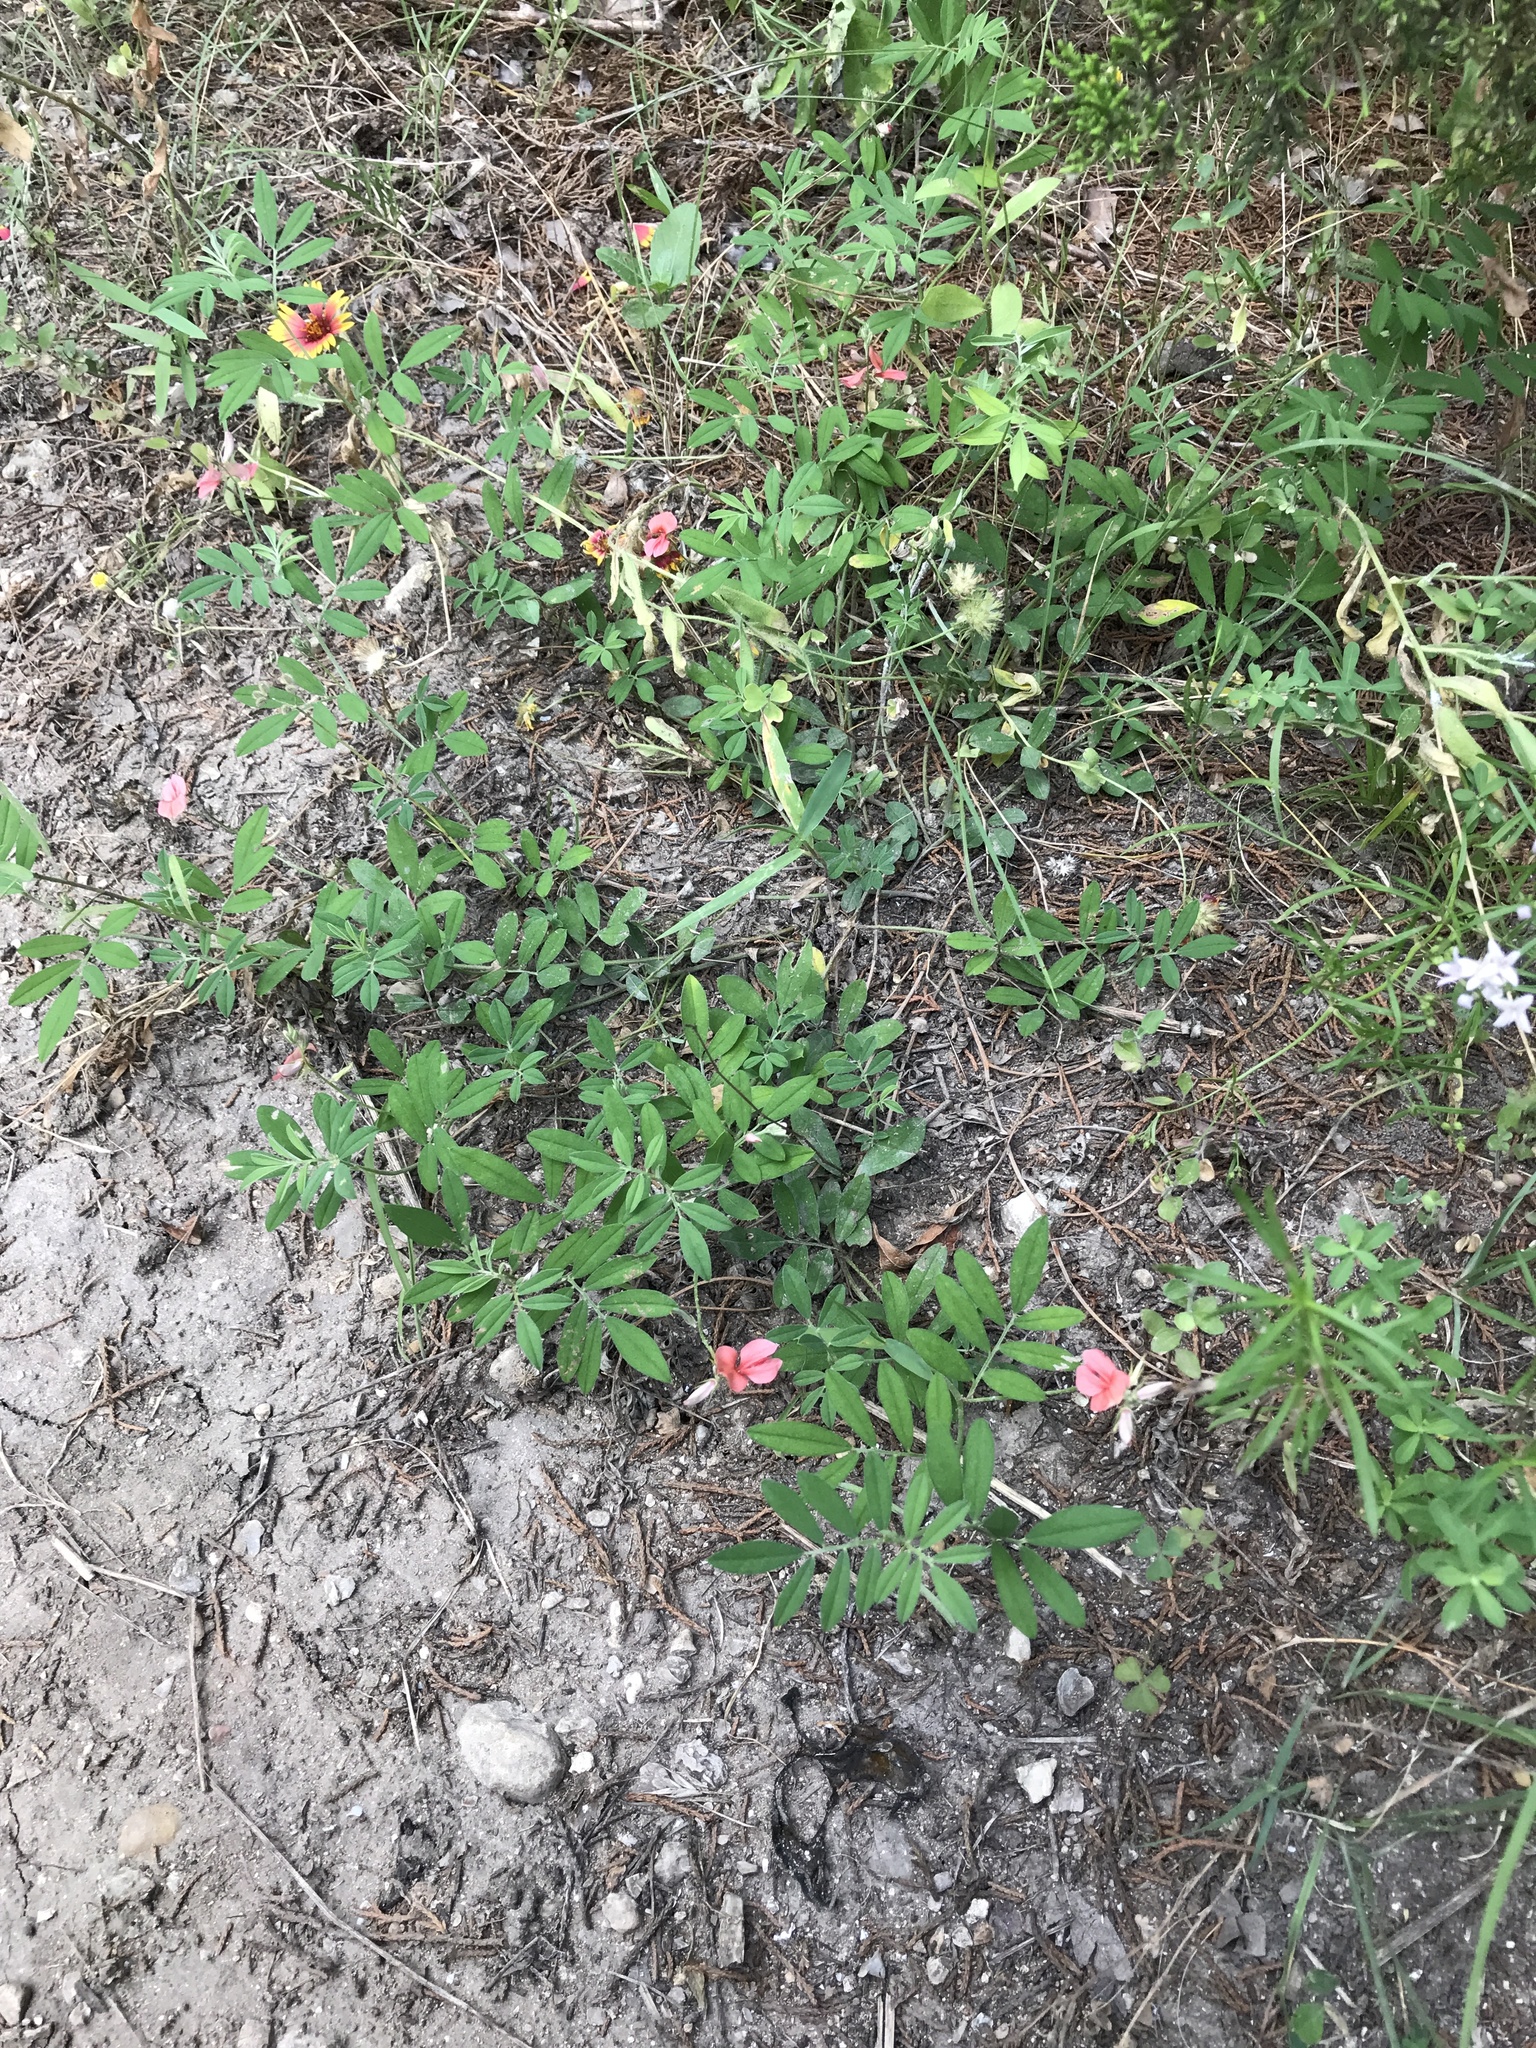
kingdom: Plantae
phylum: Tracheophyta
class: Magnoliopsida
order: Fabales
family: Fabaceae
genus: Indigofera
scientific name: Indigofera miniata
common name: Coast indigo
